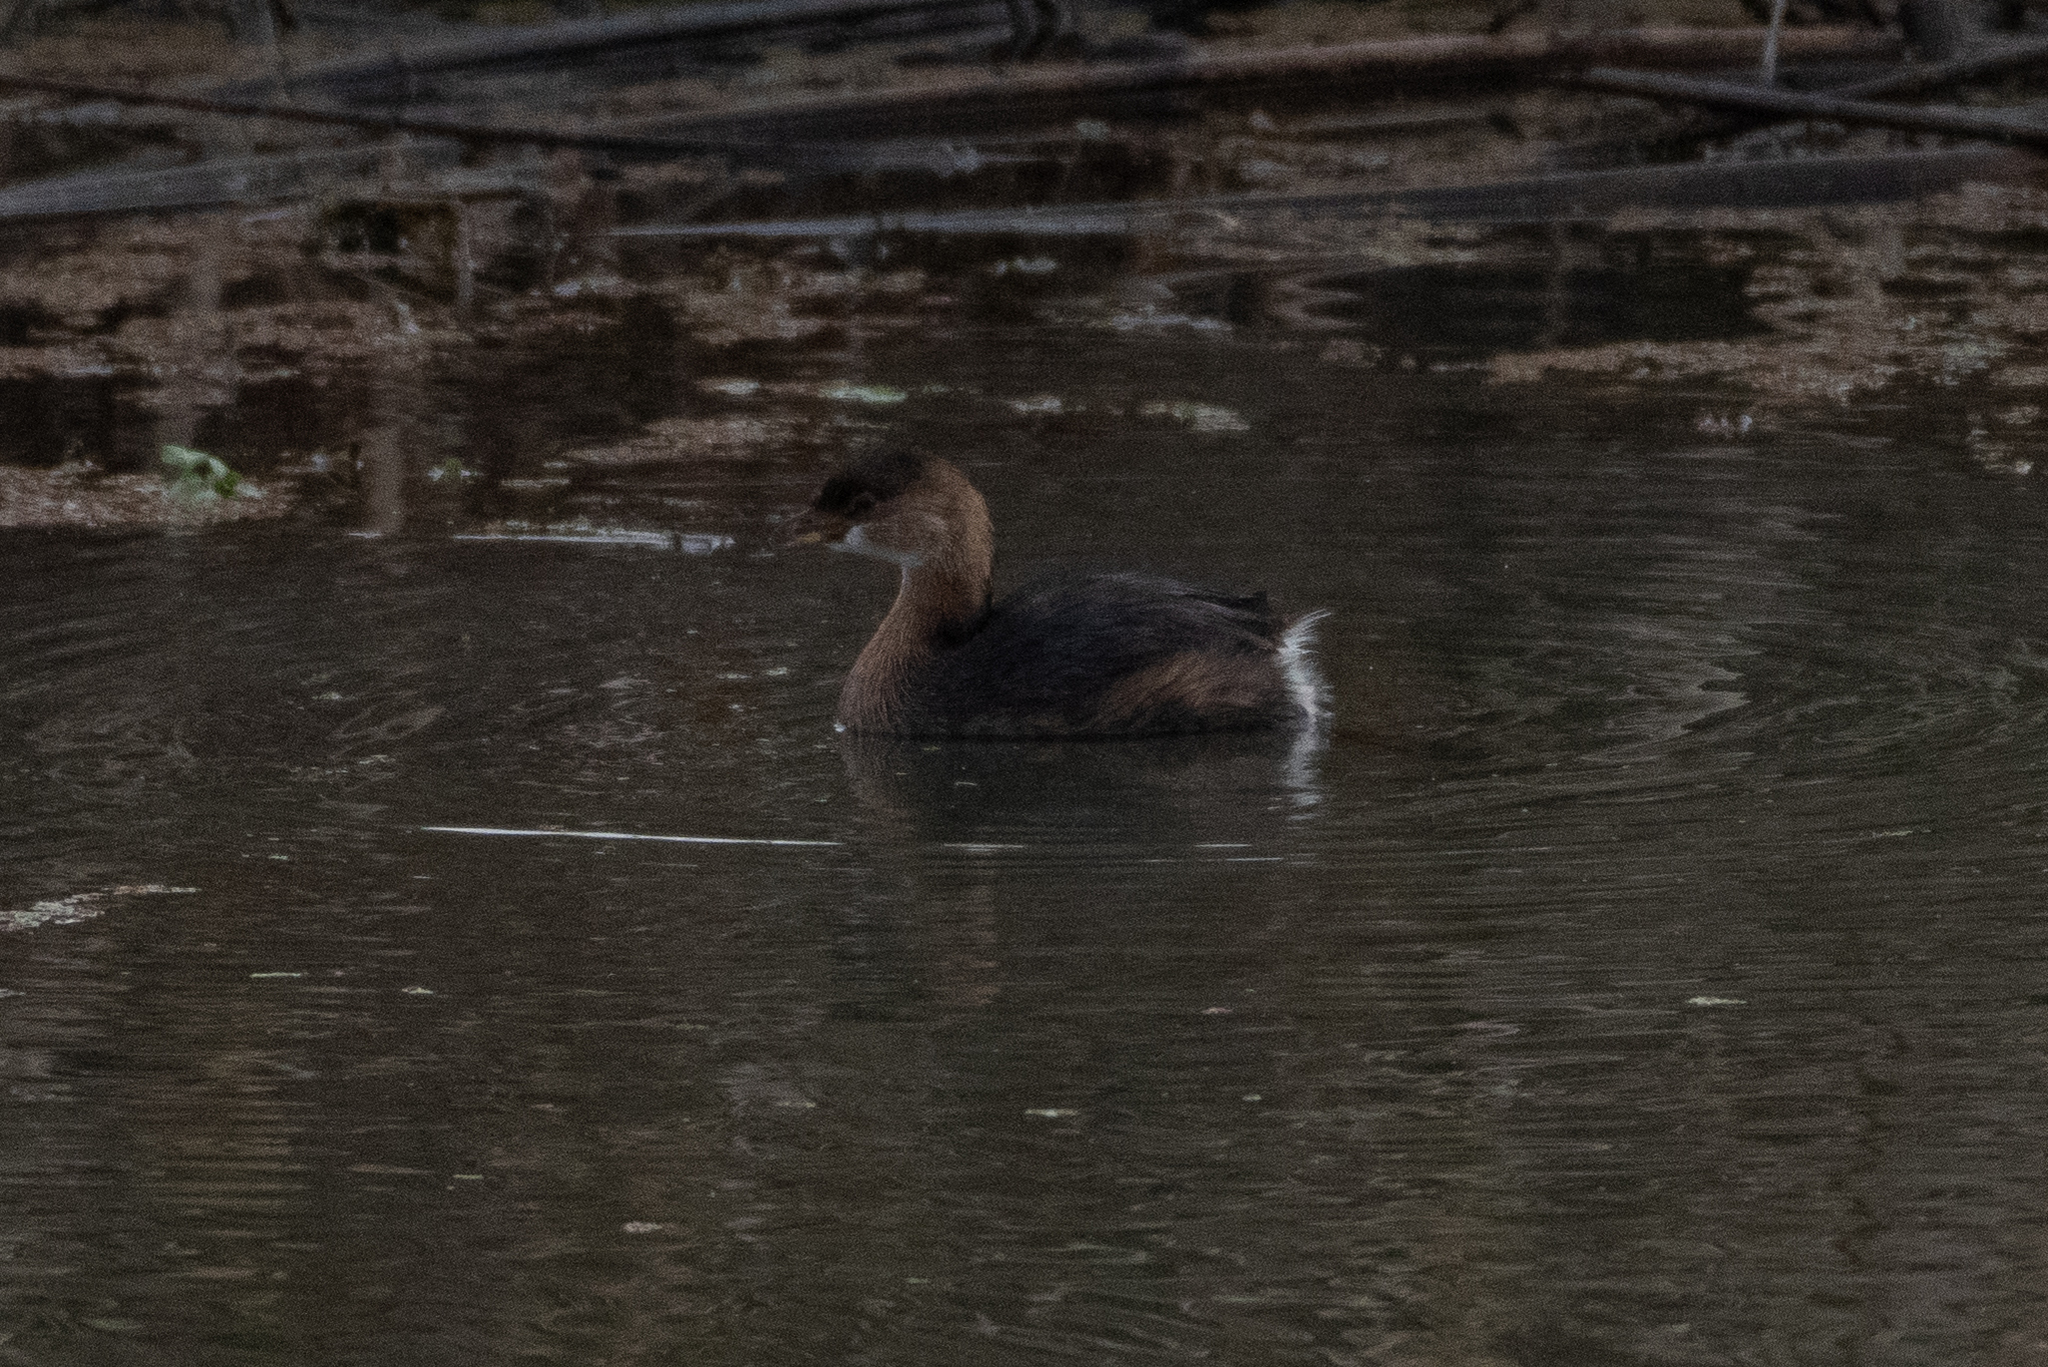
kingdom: Animalia
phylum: Chordata
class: Aves
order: Podicipediformes
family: Podicipedidae
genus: Podilymbus
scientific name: Podilymbus podiceps
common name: Pied-billed grebe
